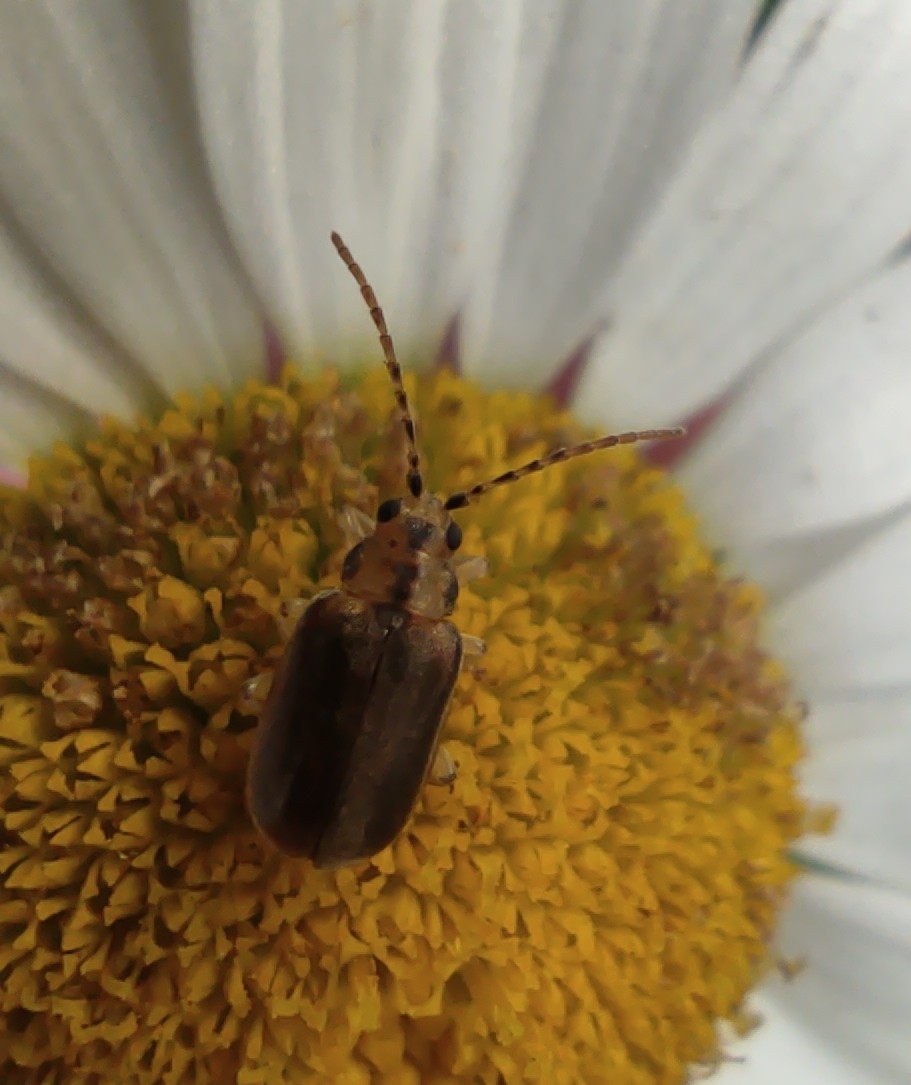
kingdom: Animalia
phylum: Arthropoda
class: Insecta
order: Coleoptera
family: Chrysomelidae
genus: Pyrrhalta
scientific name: Pyrrhalta viburni
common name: Guelder-rose leaf beetle
